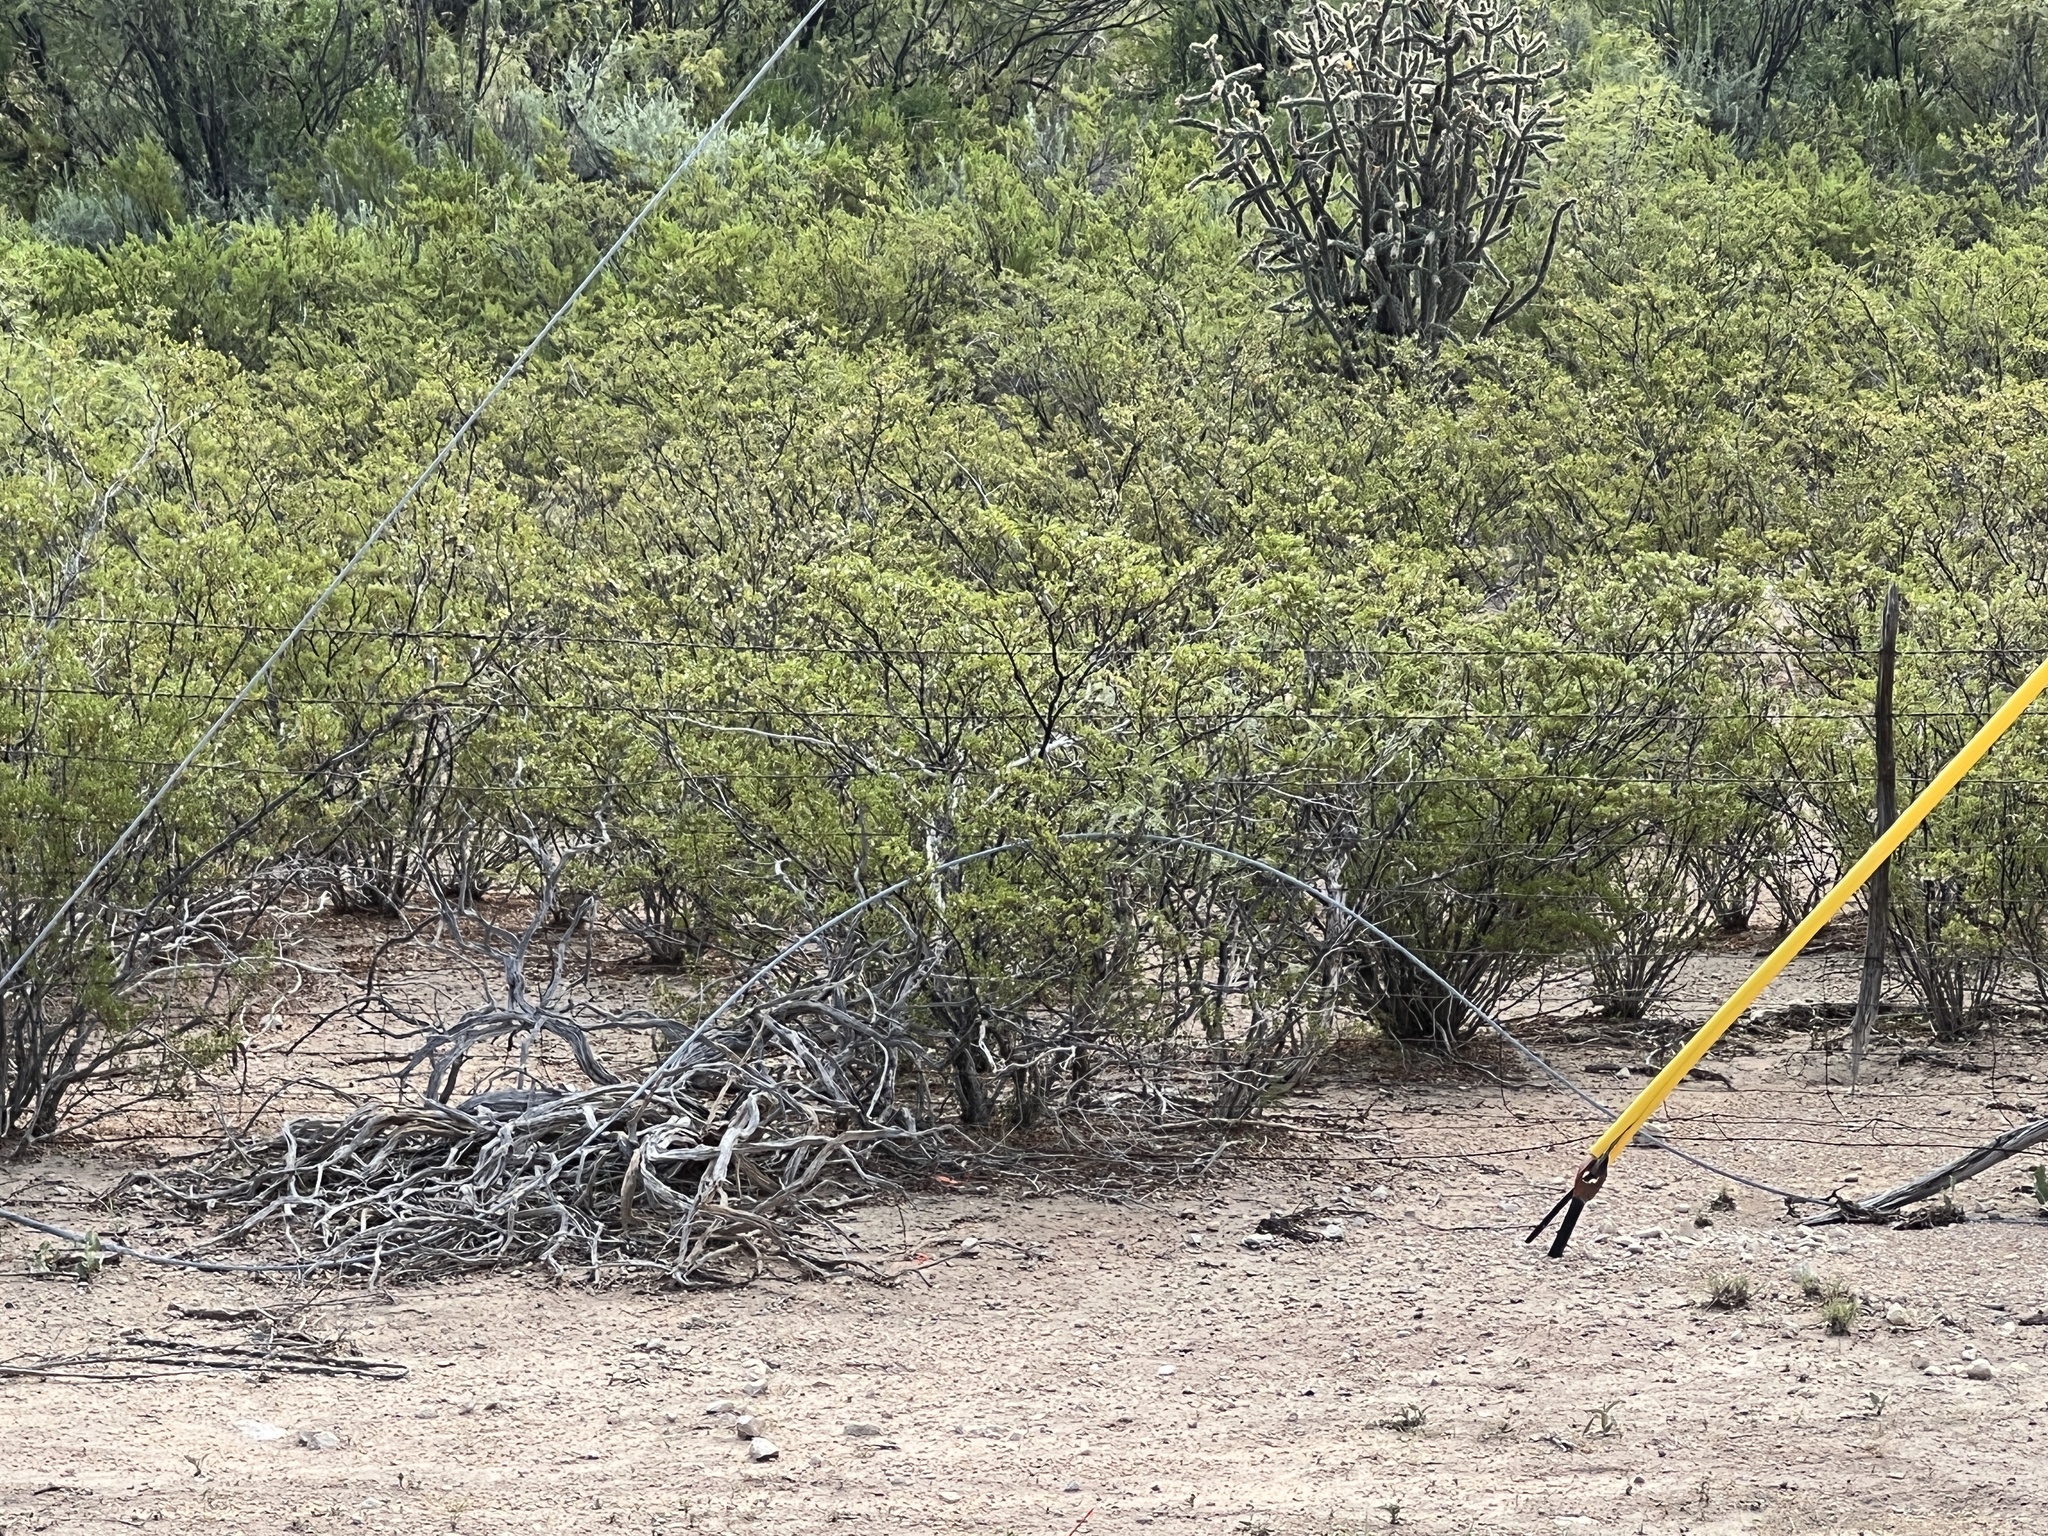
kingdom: Plantae
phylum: Tracheophyta
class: Magnoliopsida
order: Zygophyllales
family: Zygophyllaceae
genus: Larrea
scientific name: Larrea tridentata
